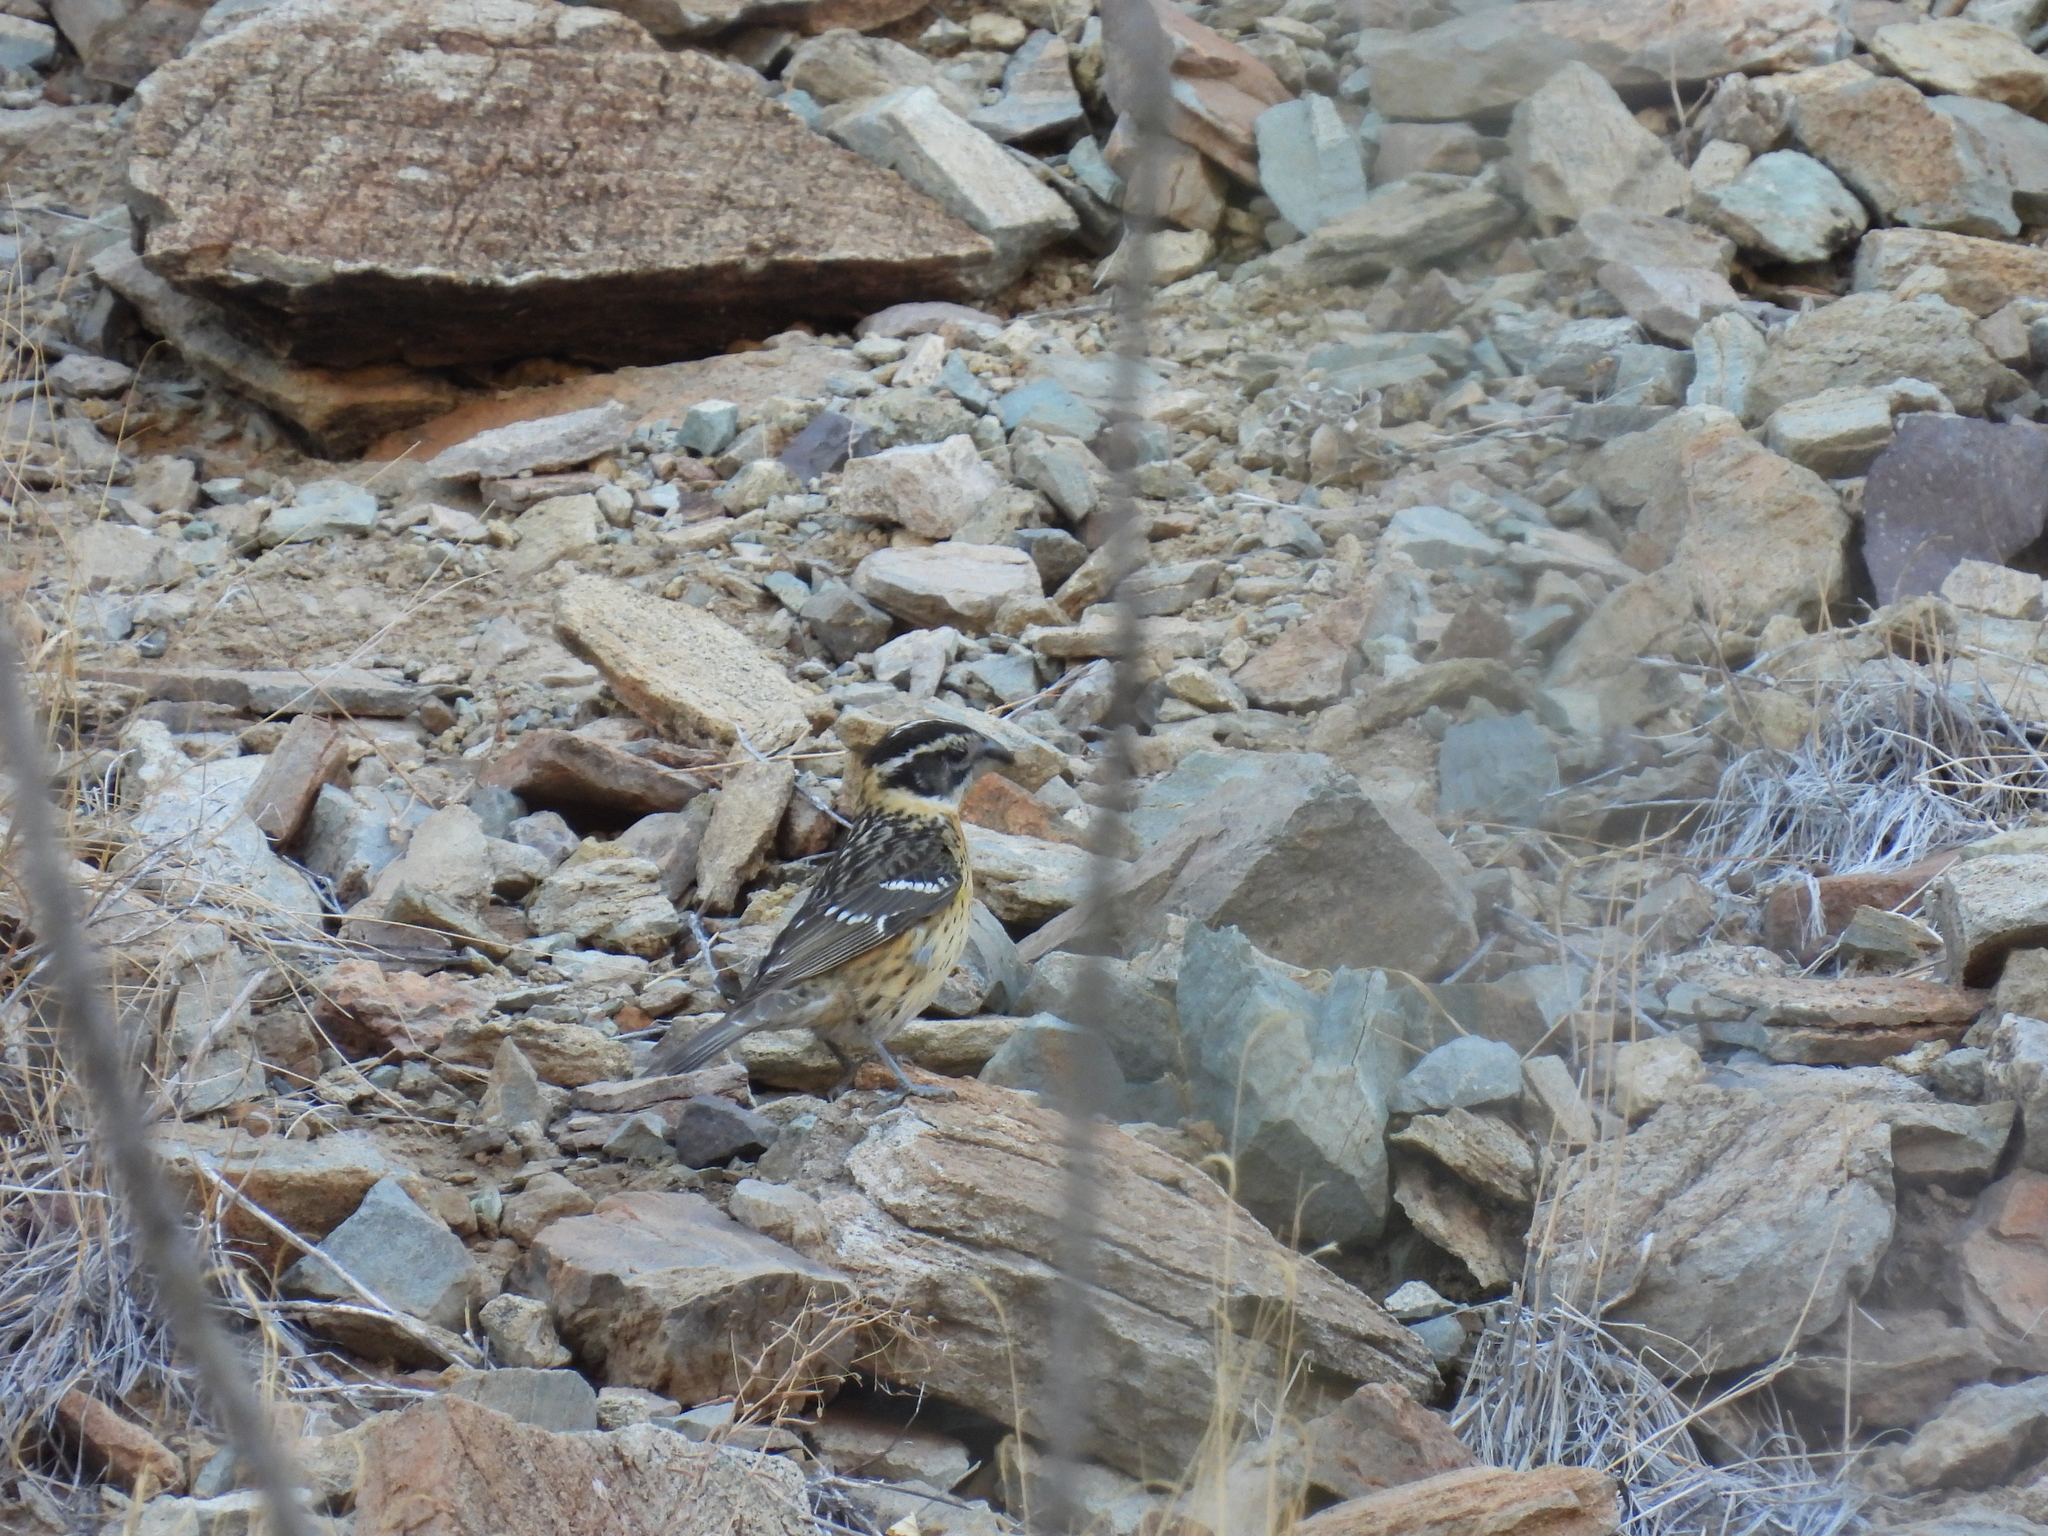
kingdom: Animalia
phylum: Chordata
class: Aves
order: Passeriformes
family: Cardinalidae
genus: Pheucticus
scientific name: Pheucticus melanocephalus
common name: Black-headed grosbeak
